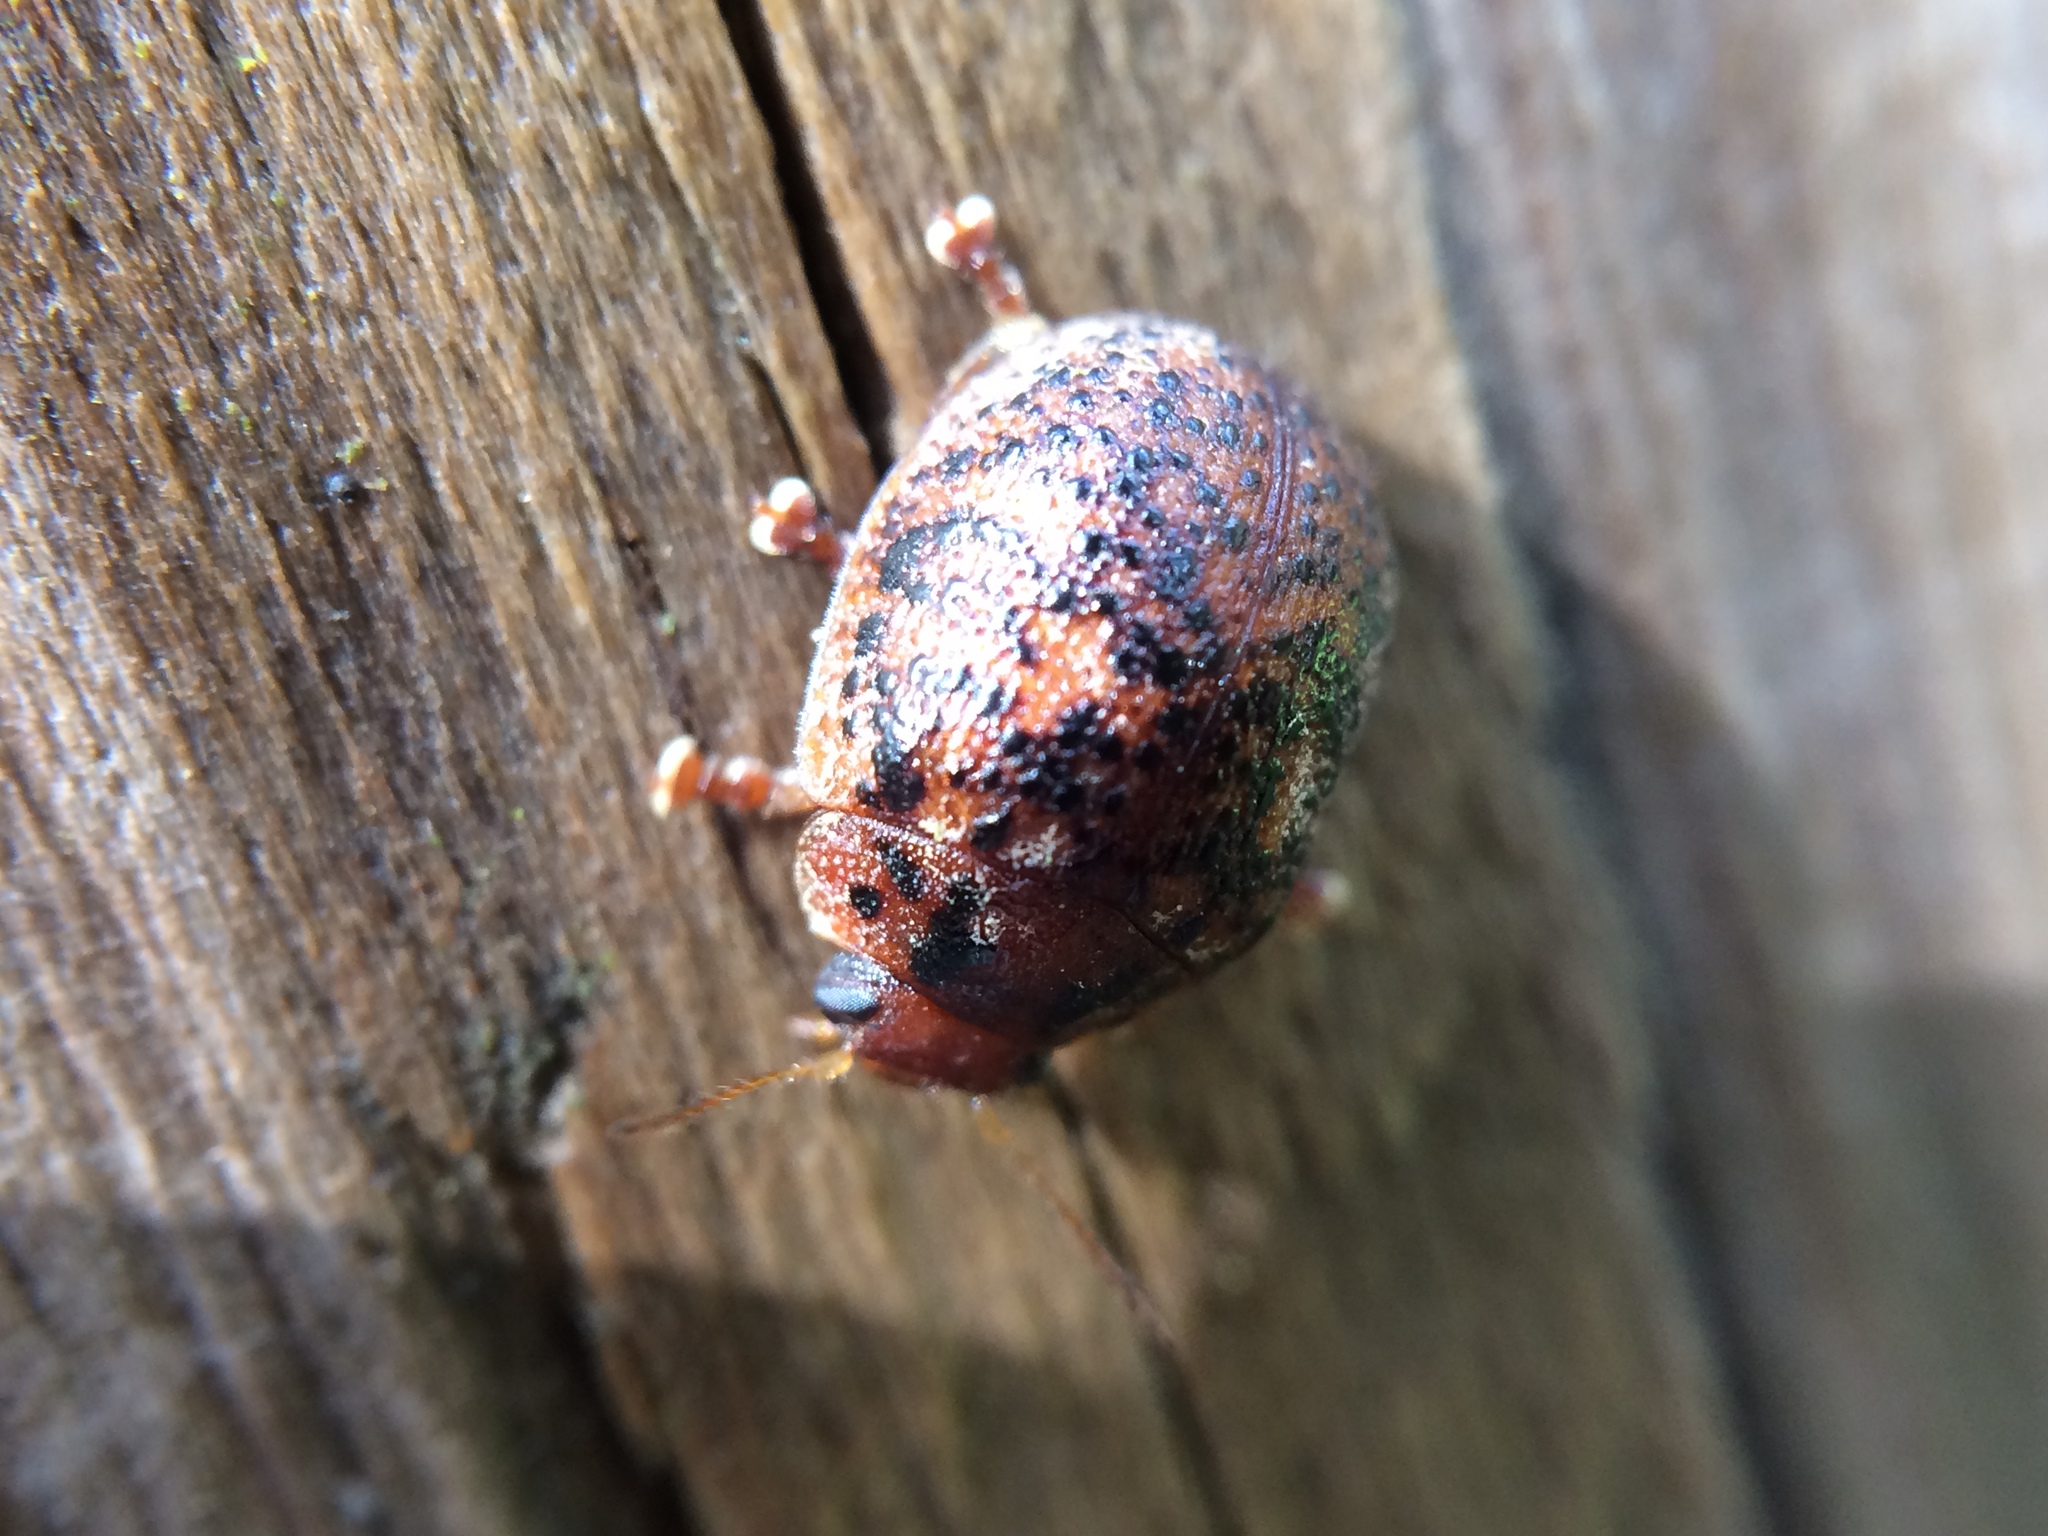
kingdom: Animalia
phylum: Arthropoda
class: Insecta
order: Coleoptera
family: Chrysomelidae
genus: Trachymela
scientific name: Trachymela sloanei
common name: Australian tortoise beetle
